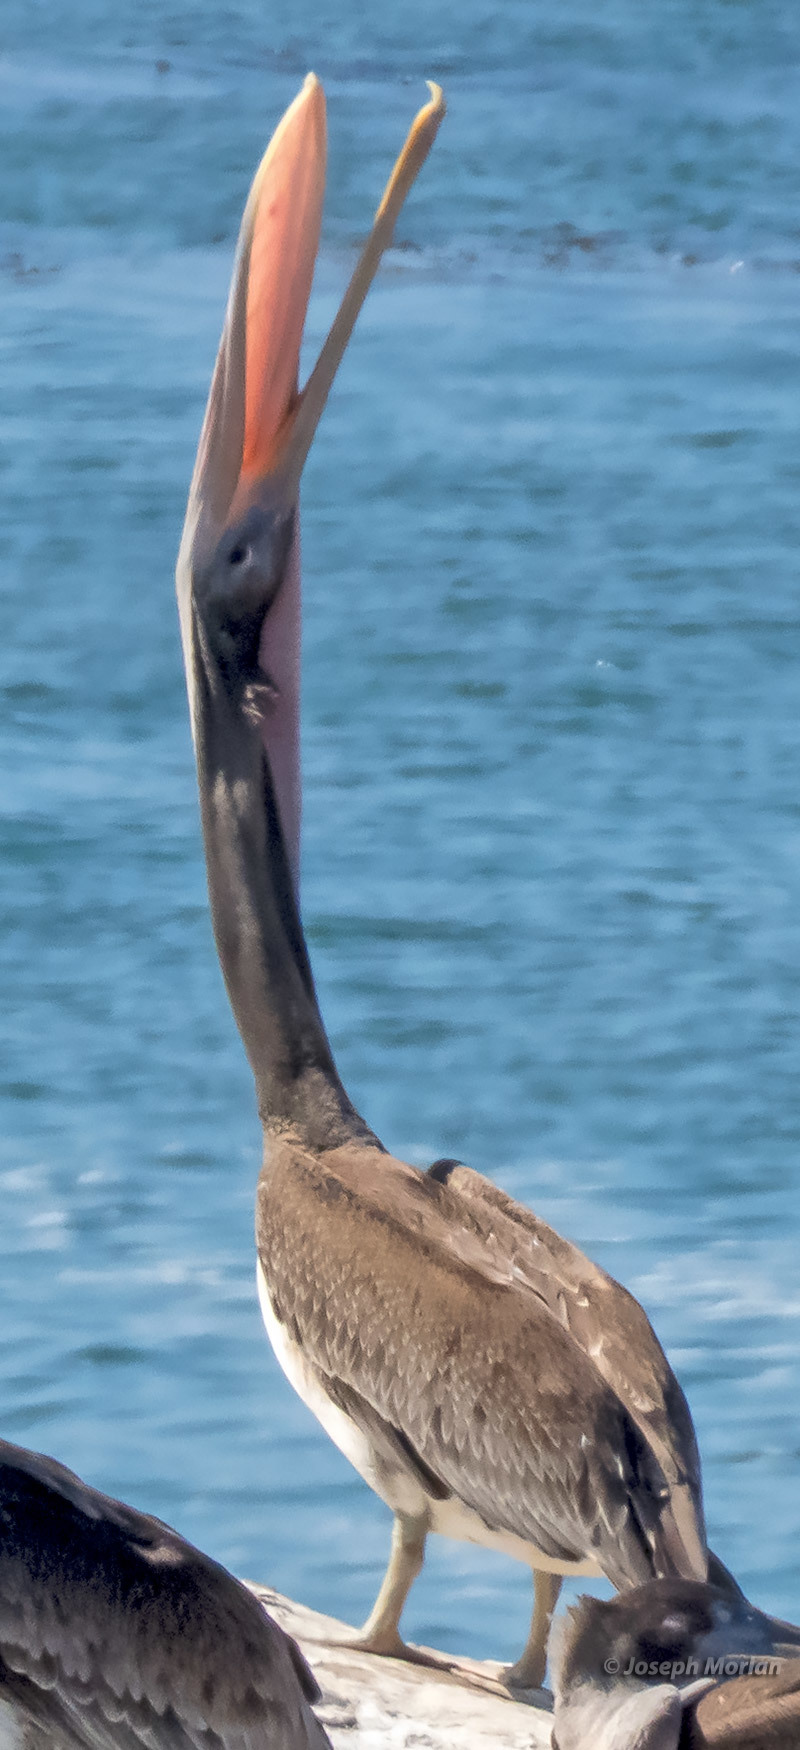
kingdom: Animalia
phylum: Chordata
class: Aves
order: Pelecaniformes
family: Pelecanidae
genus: Pelecanus
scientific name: Pelecanus occidentalis
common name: Brown pelican
